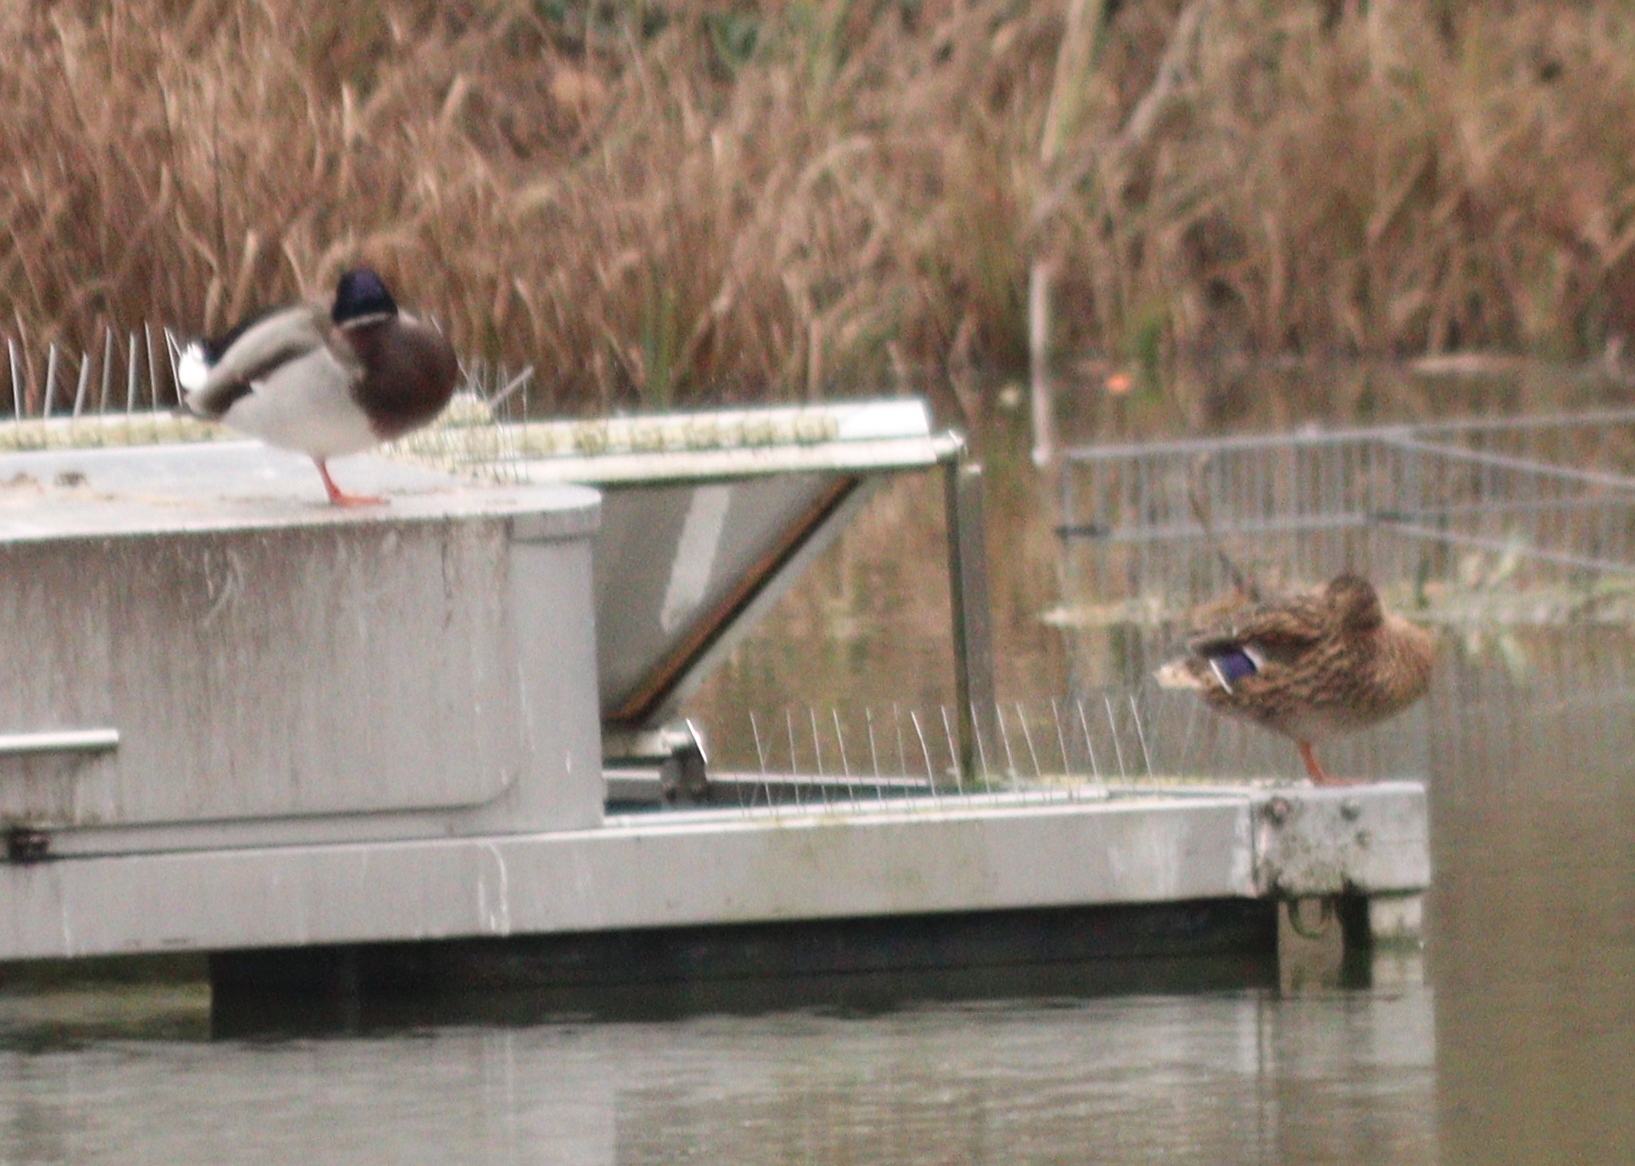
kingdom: Animalia
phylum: Chordata
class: Aves
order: Anseriformes
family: Anatidae
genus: Anas
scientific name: Anas platyrhynchos
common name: Mallard
